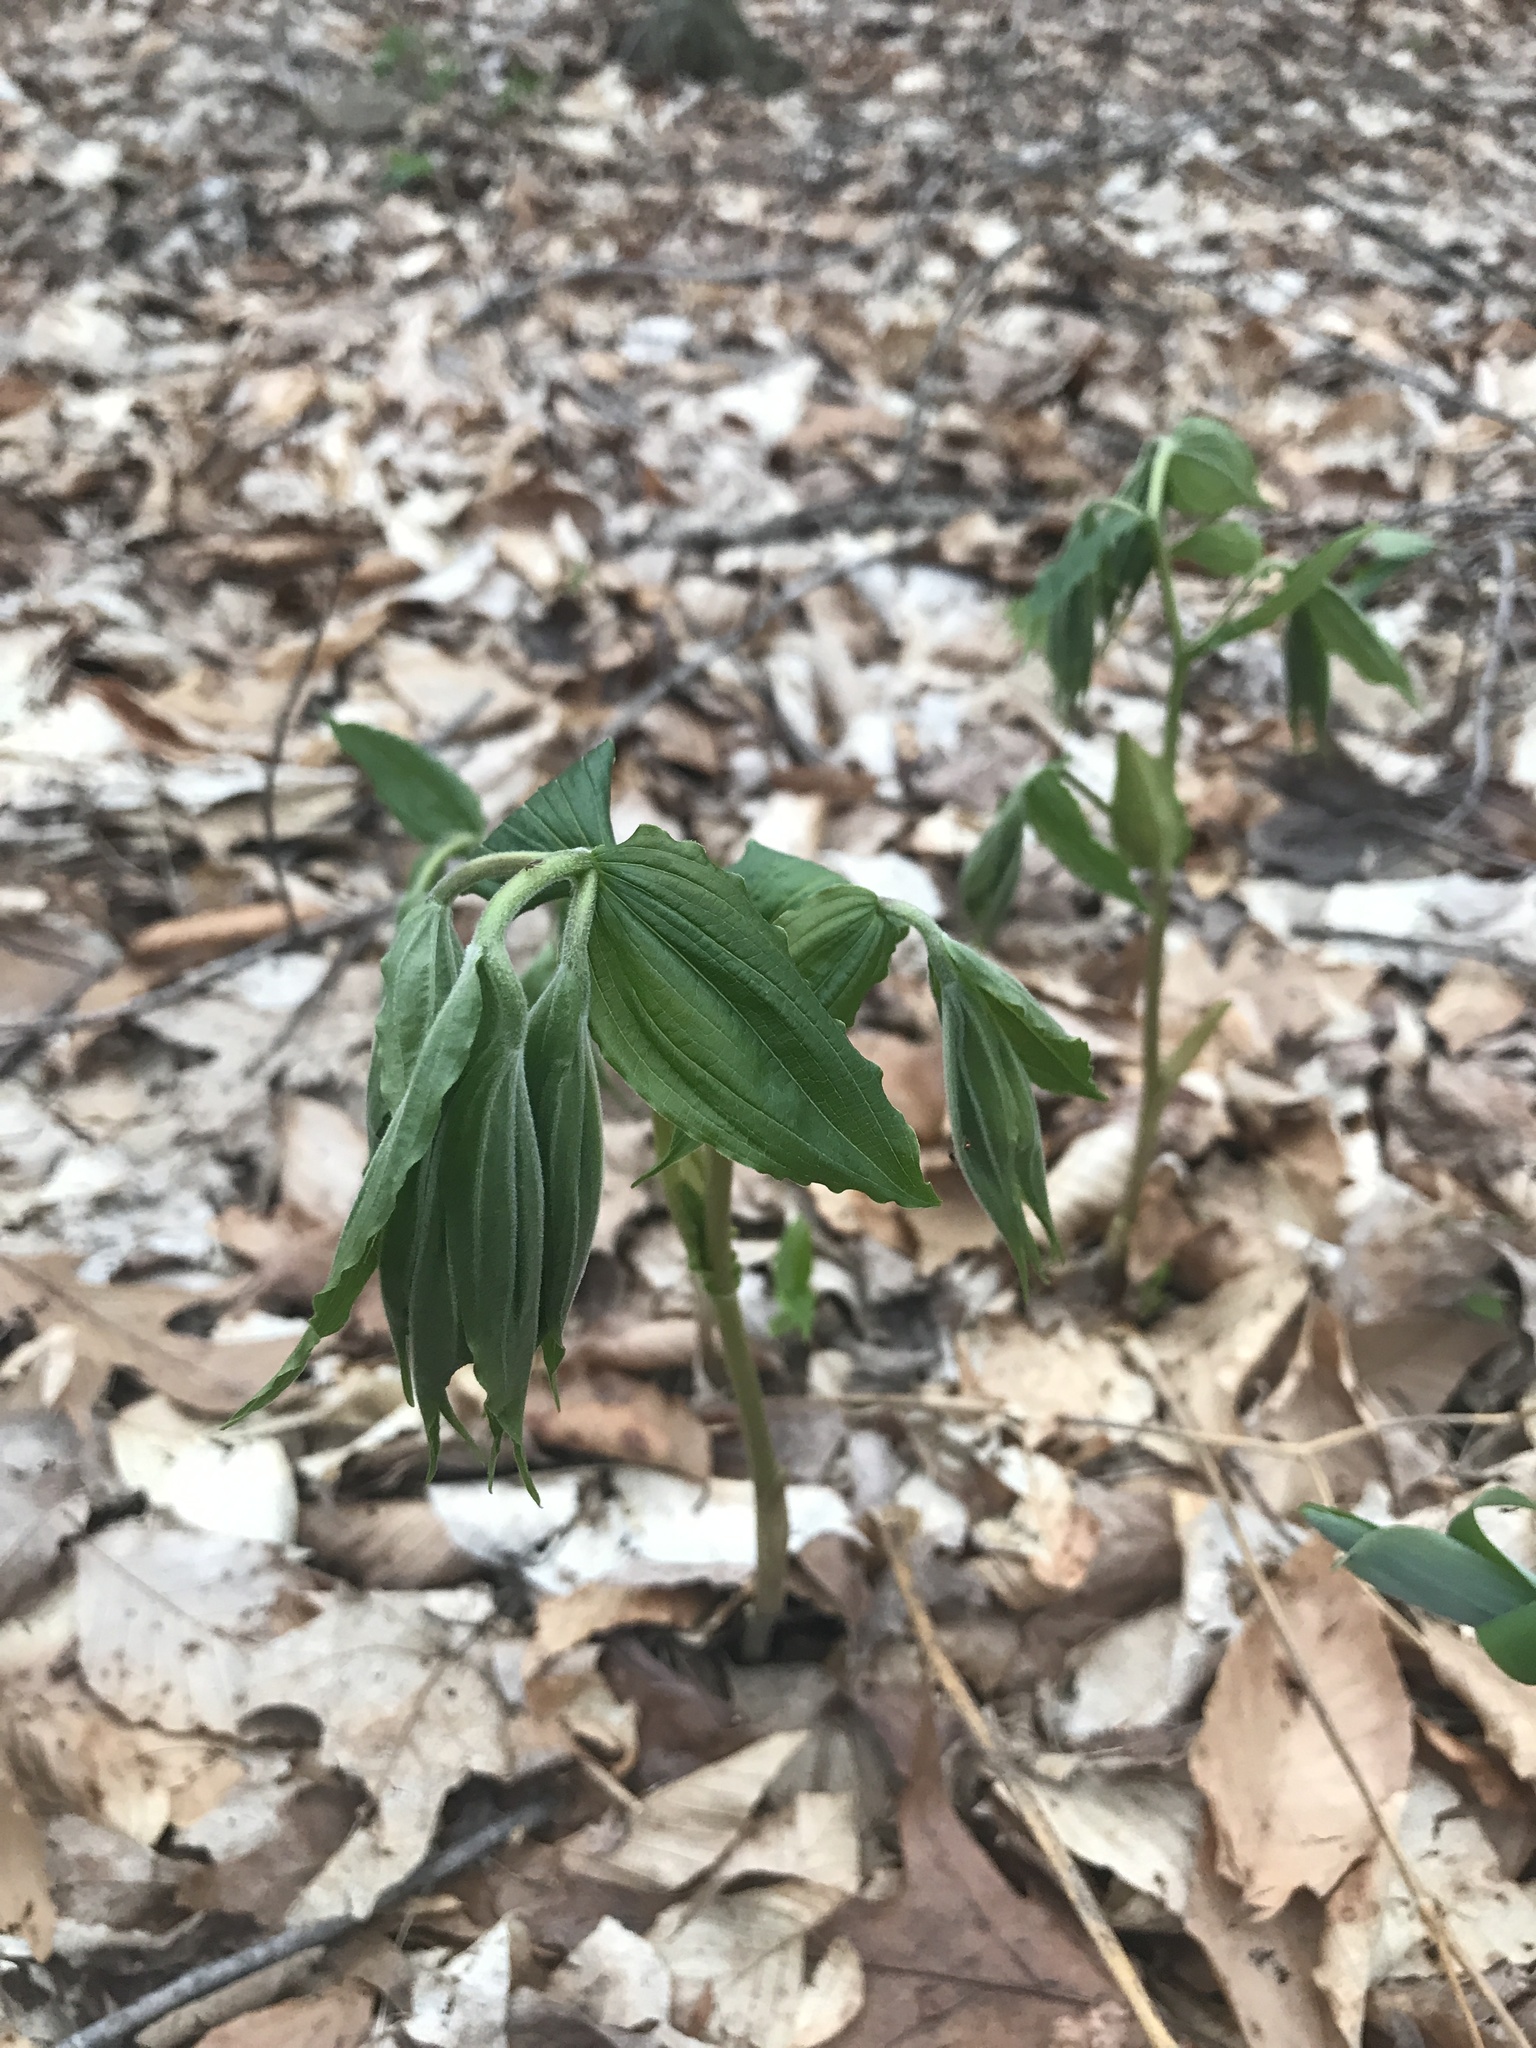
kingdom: Plantae
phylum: Tracheophyta
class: Liliopsida
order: Liliales
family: Liliaceae
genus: Prosartes
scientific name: Prosartes lanuginosa
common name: Hairy mandarin
